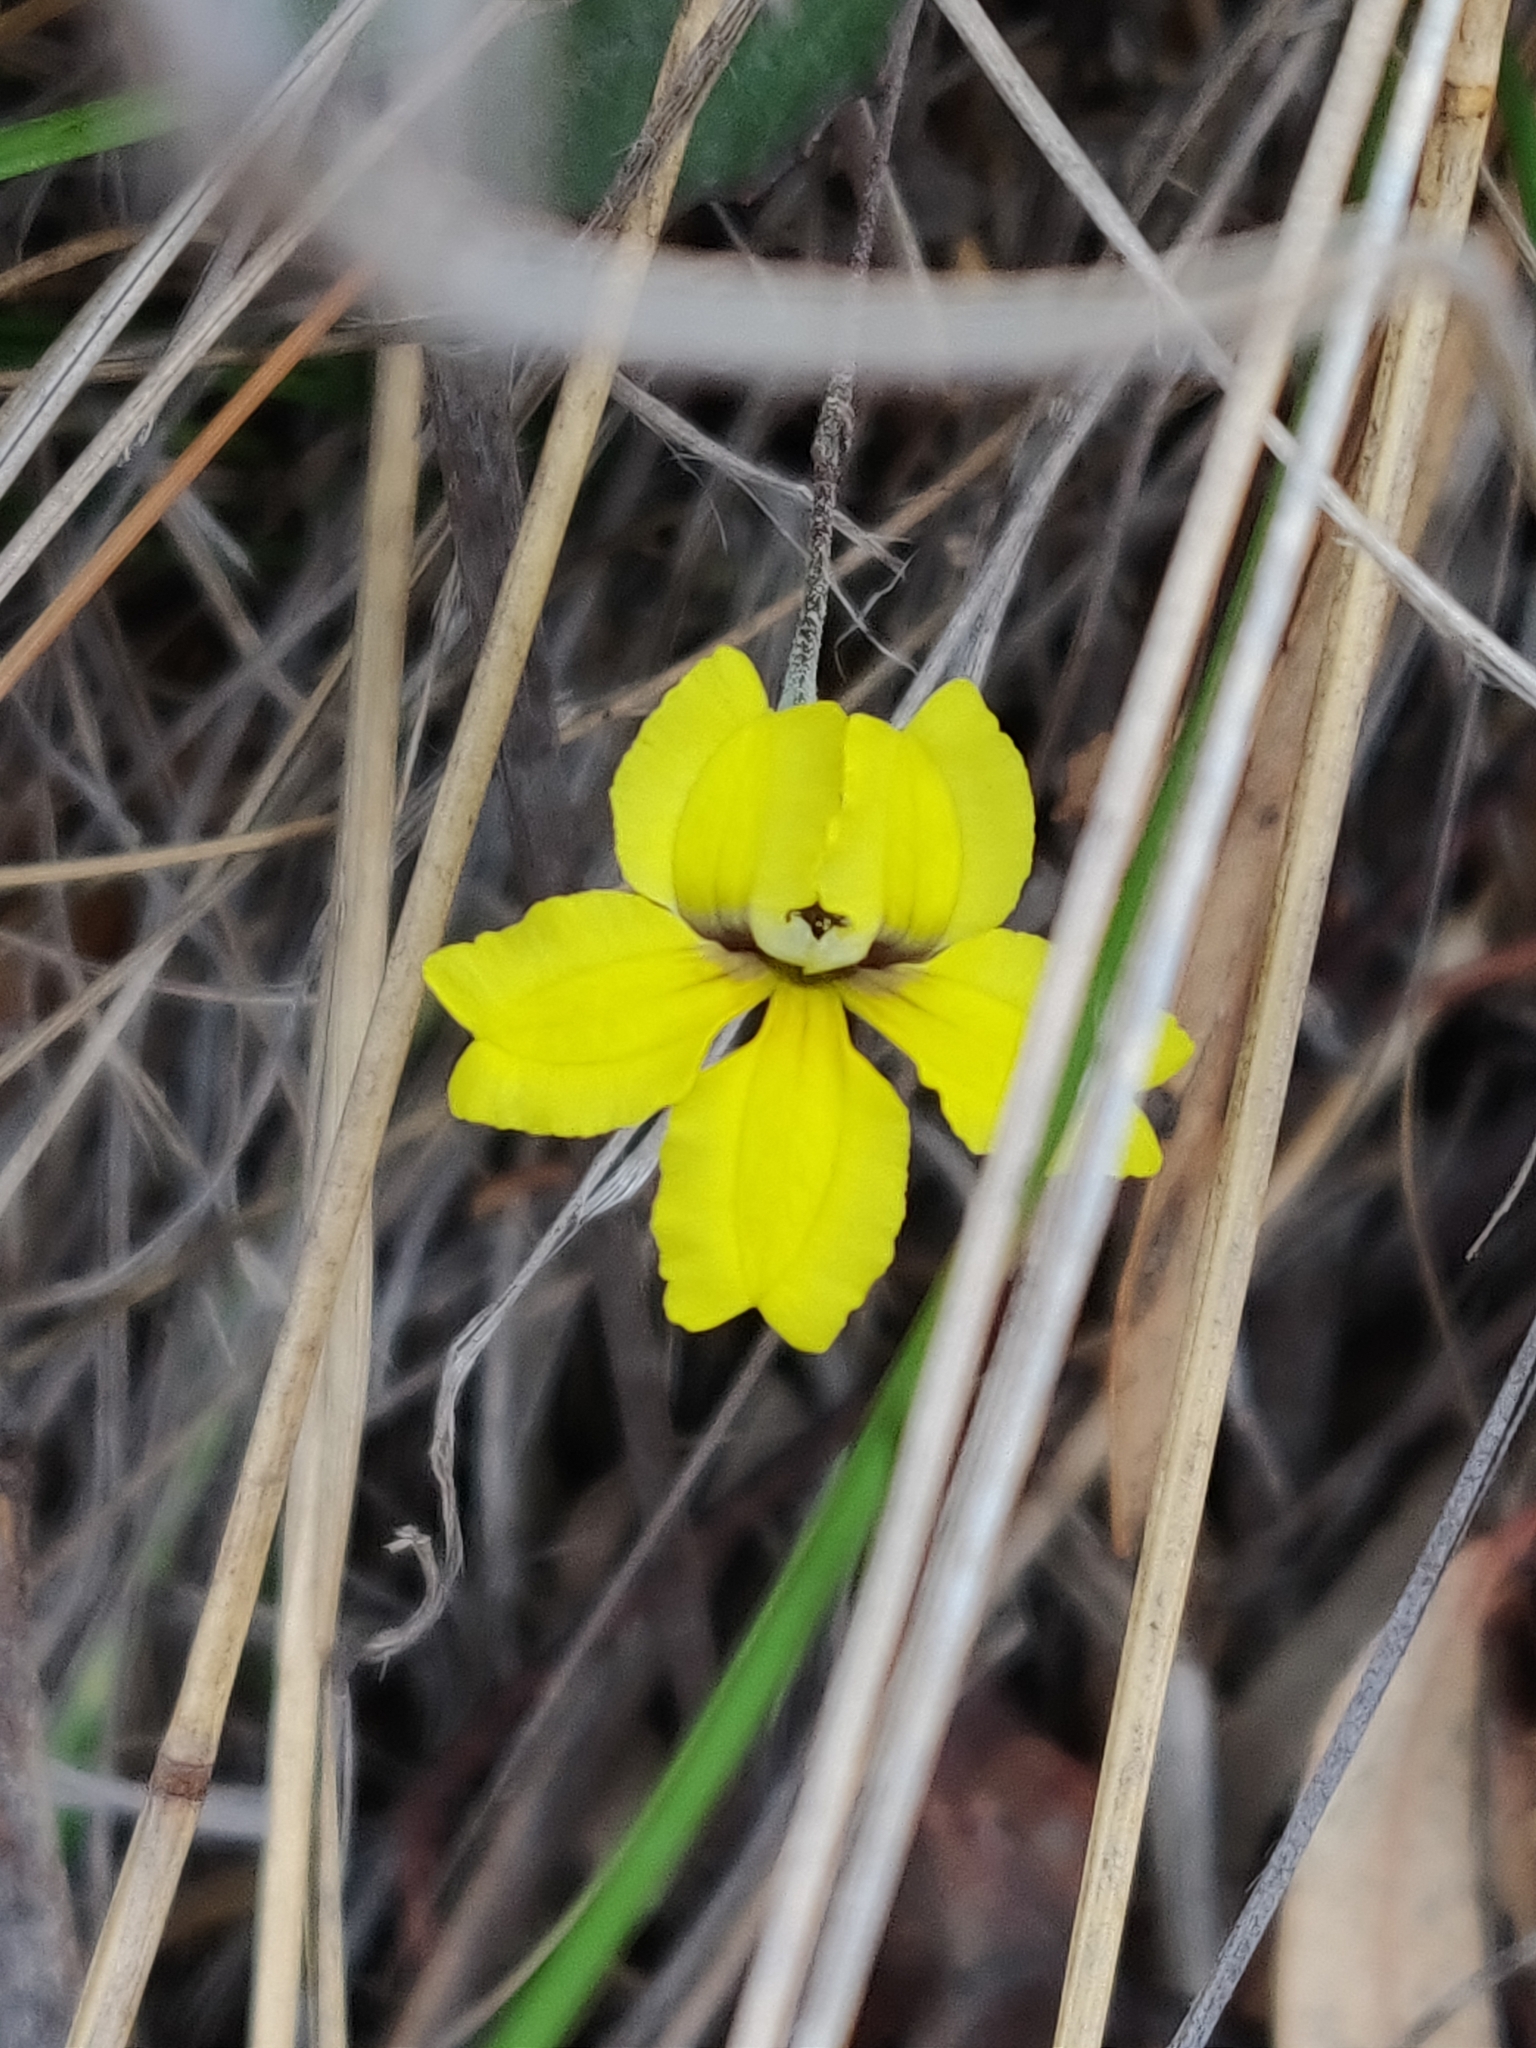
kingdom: Plantae
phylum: Tracheophyta
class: Magnoliopsida
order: Asterales
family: Goodeniaceae
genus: Goodenia
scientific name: Goodenia hederacea
